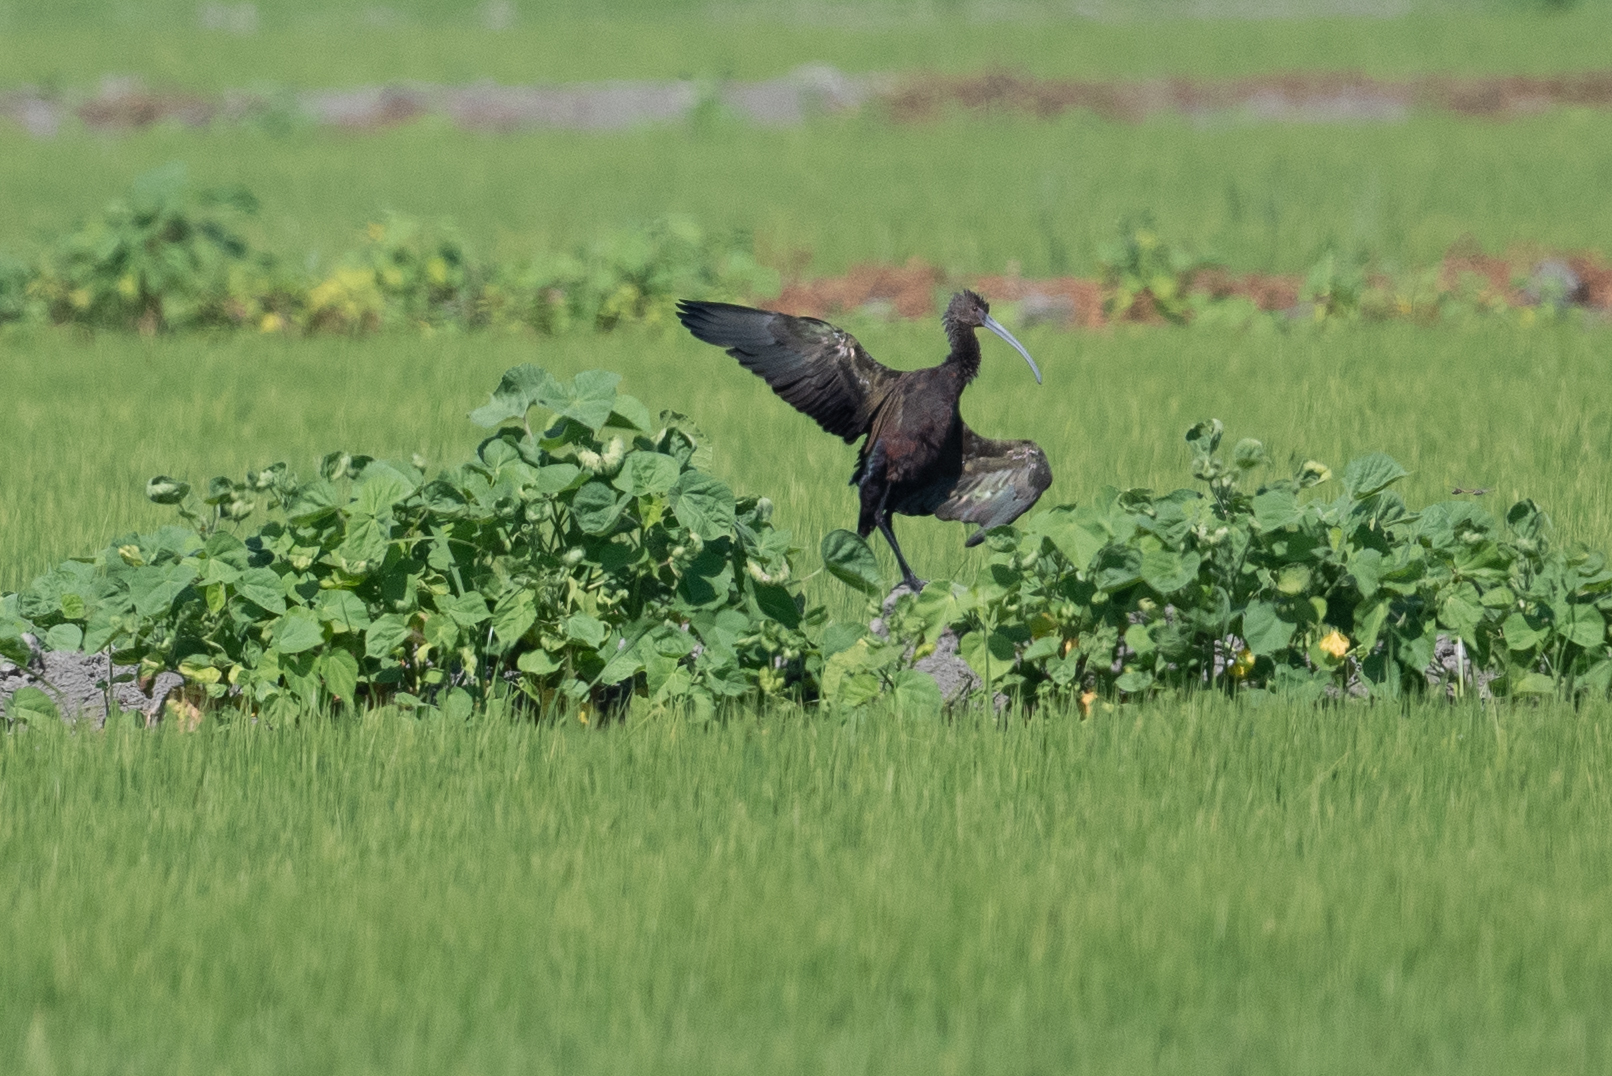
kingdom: Animalia
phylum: Chordata
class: Aves
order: Pelecaniformes
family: Threskiornithidae
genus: Plegadis
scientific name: Plegadis chihi
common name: White-faced ibis
